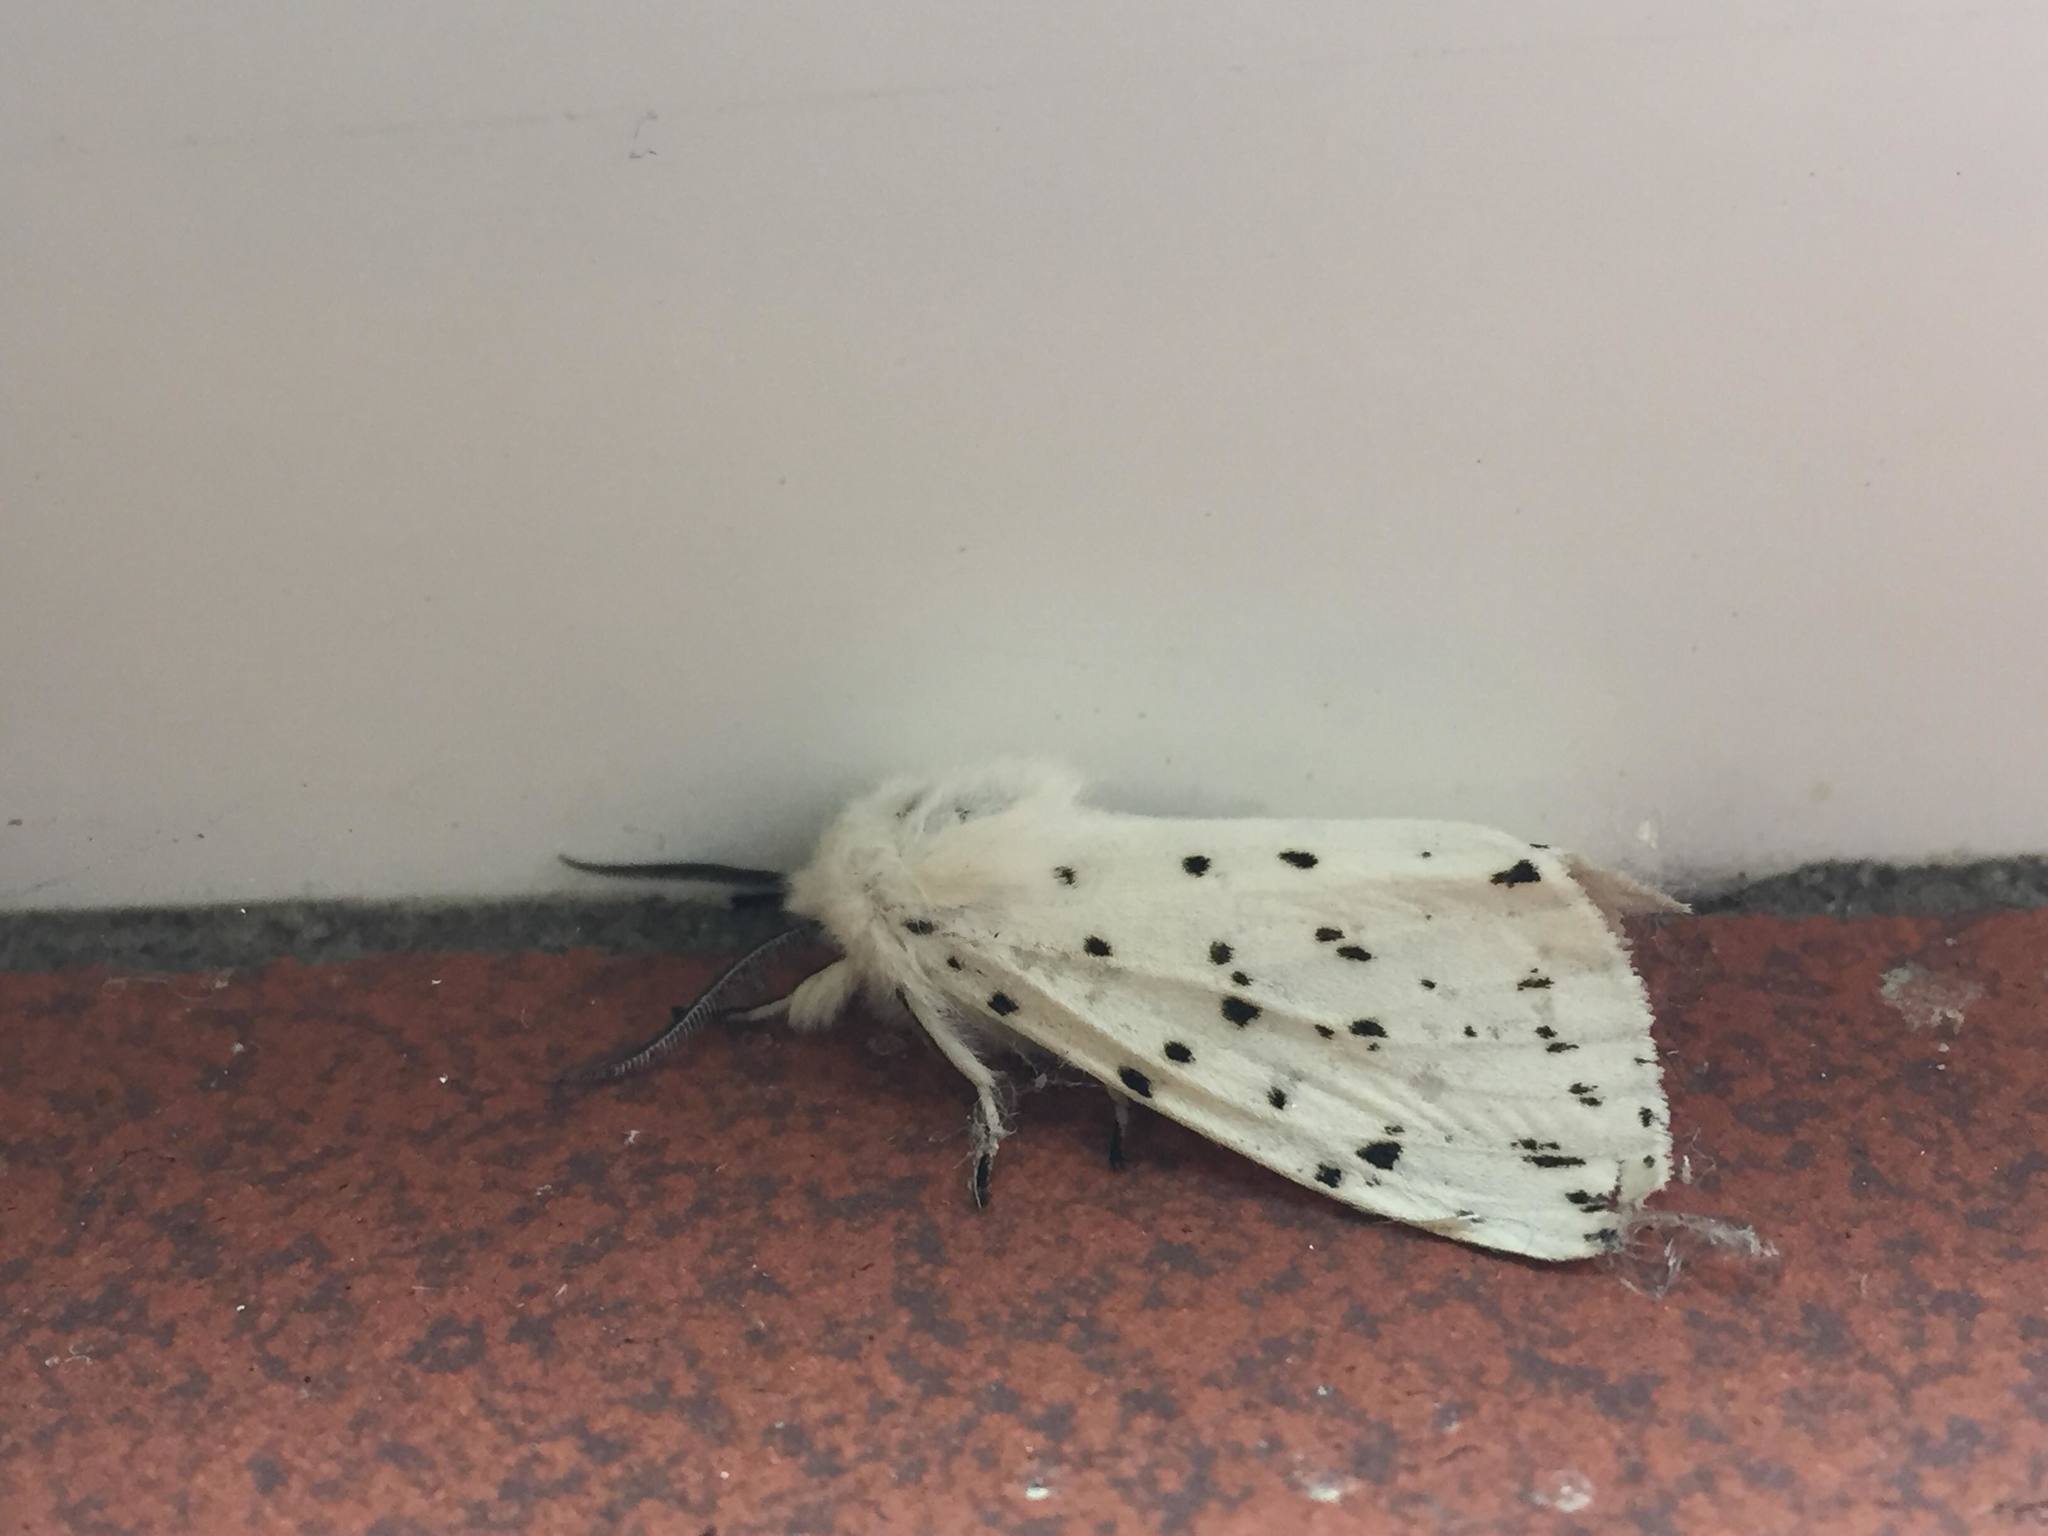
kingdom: Animalia
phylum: Arthropoda
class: Insecta
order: Lepidoptera
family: Erebidae
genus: Spilosoma
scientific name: Spilosoma lubricipeda
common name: White ermine
